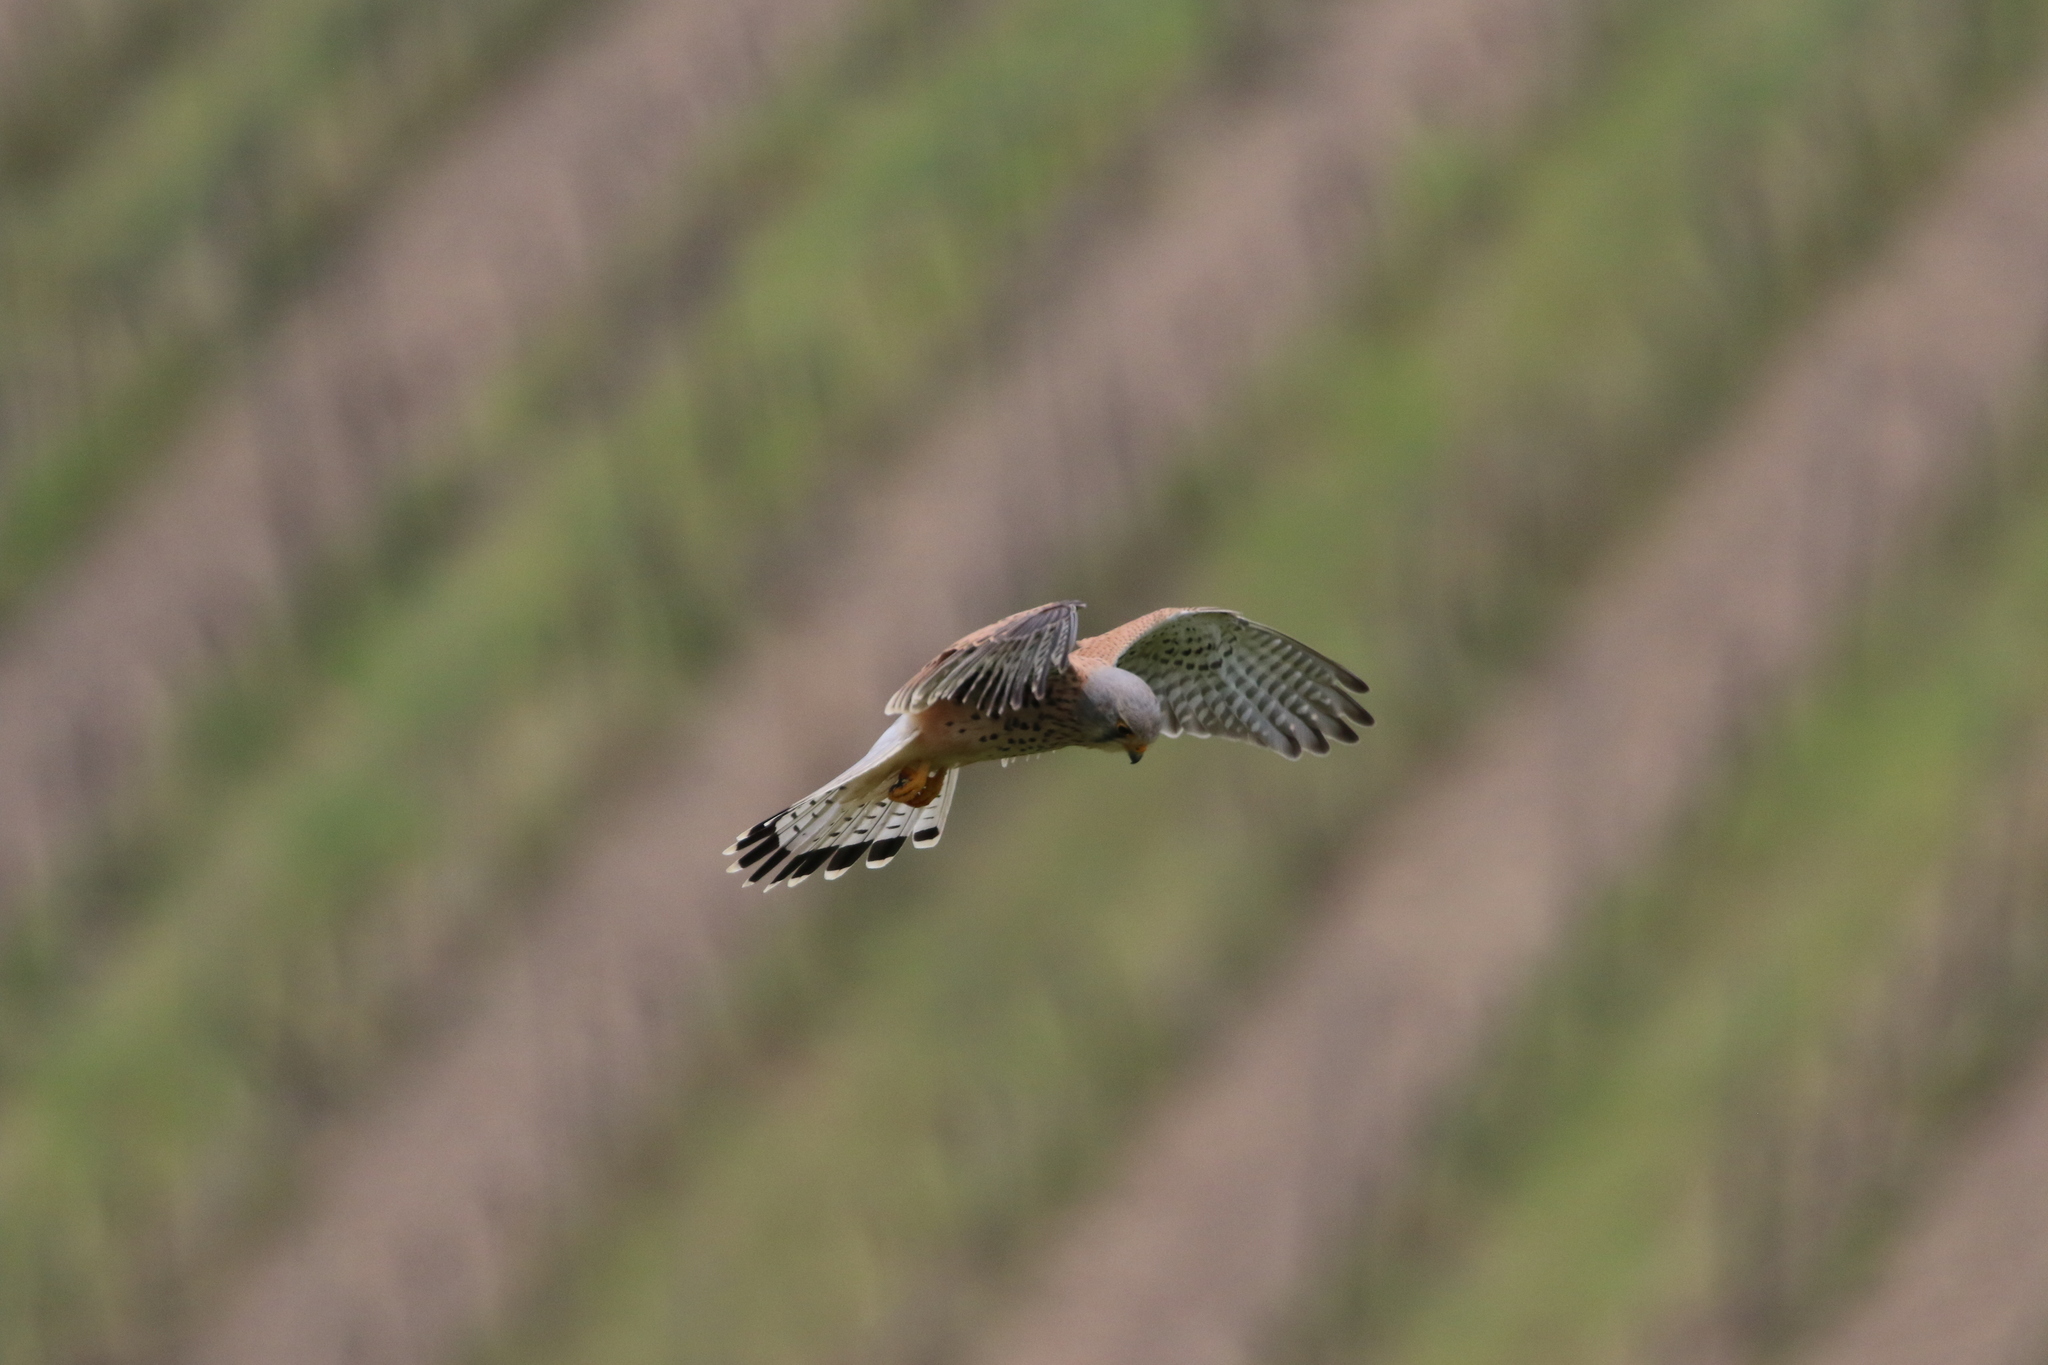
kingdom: Animalia
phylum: Chordata
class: Aves
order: Falconiformes
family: Falconidae
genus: Falco
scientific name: Falco tinnunculus
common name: Common kestrel
